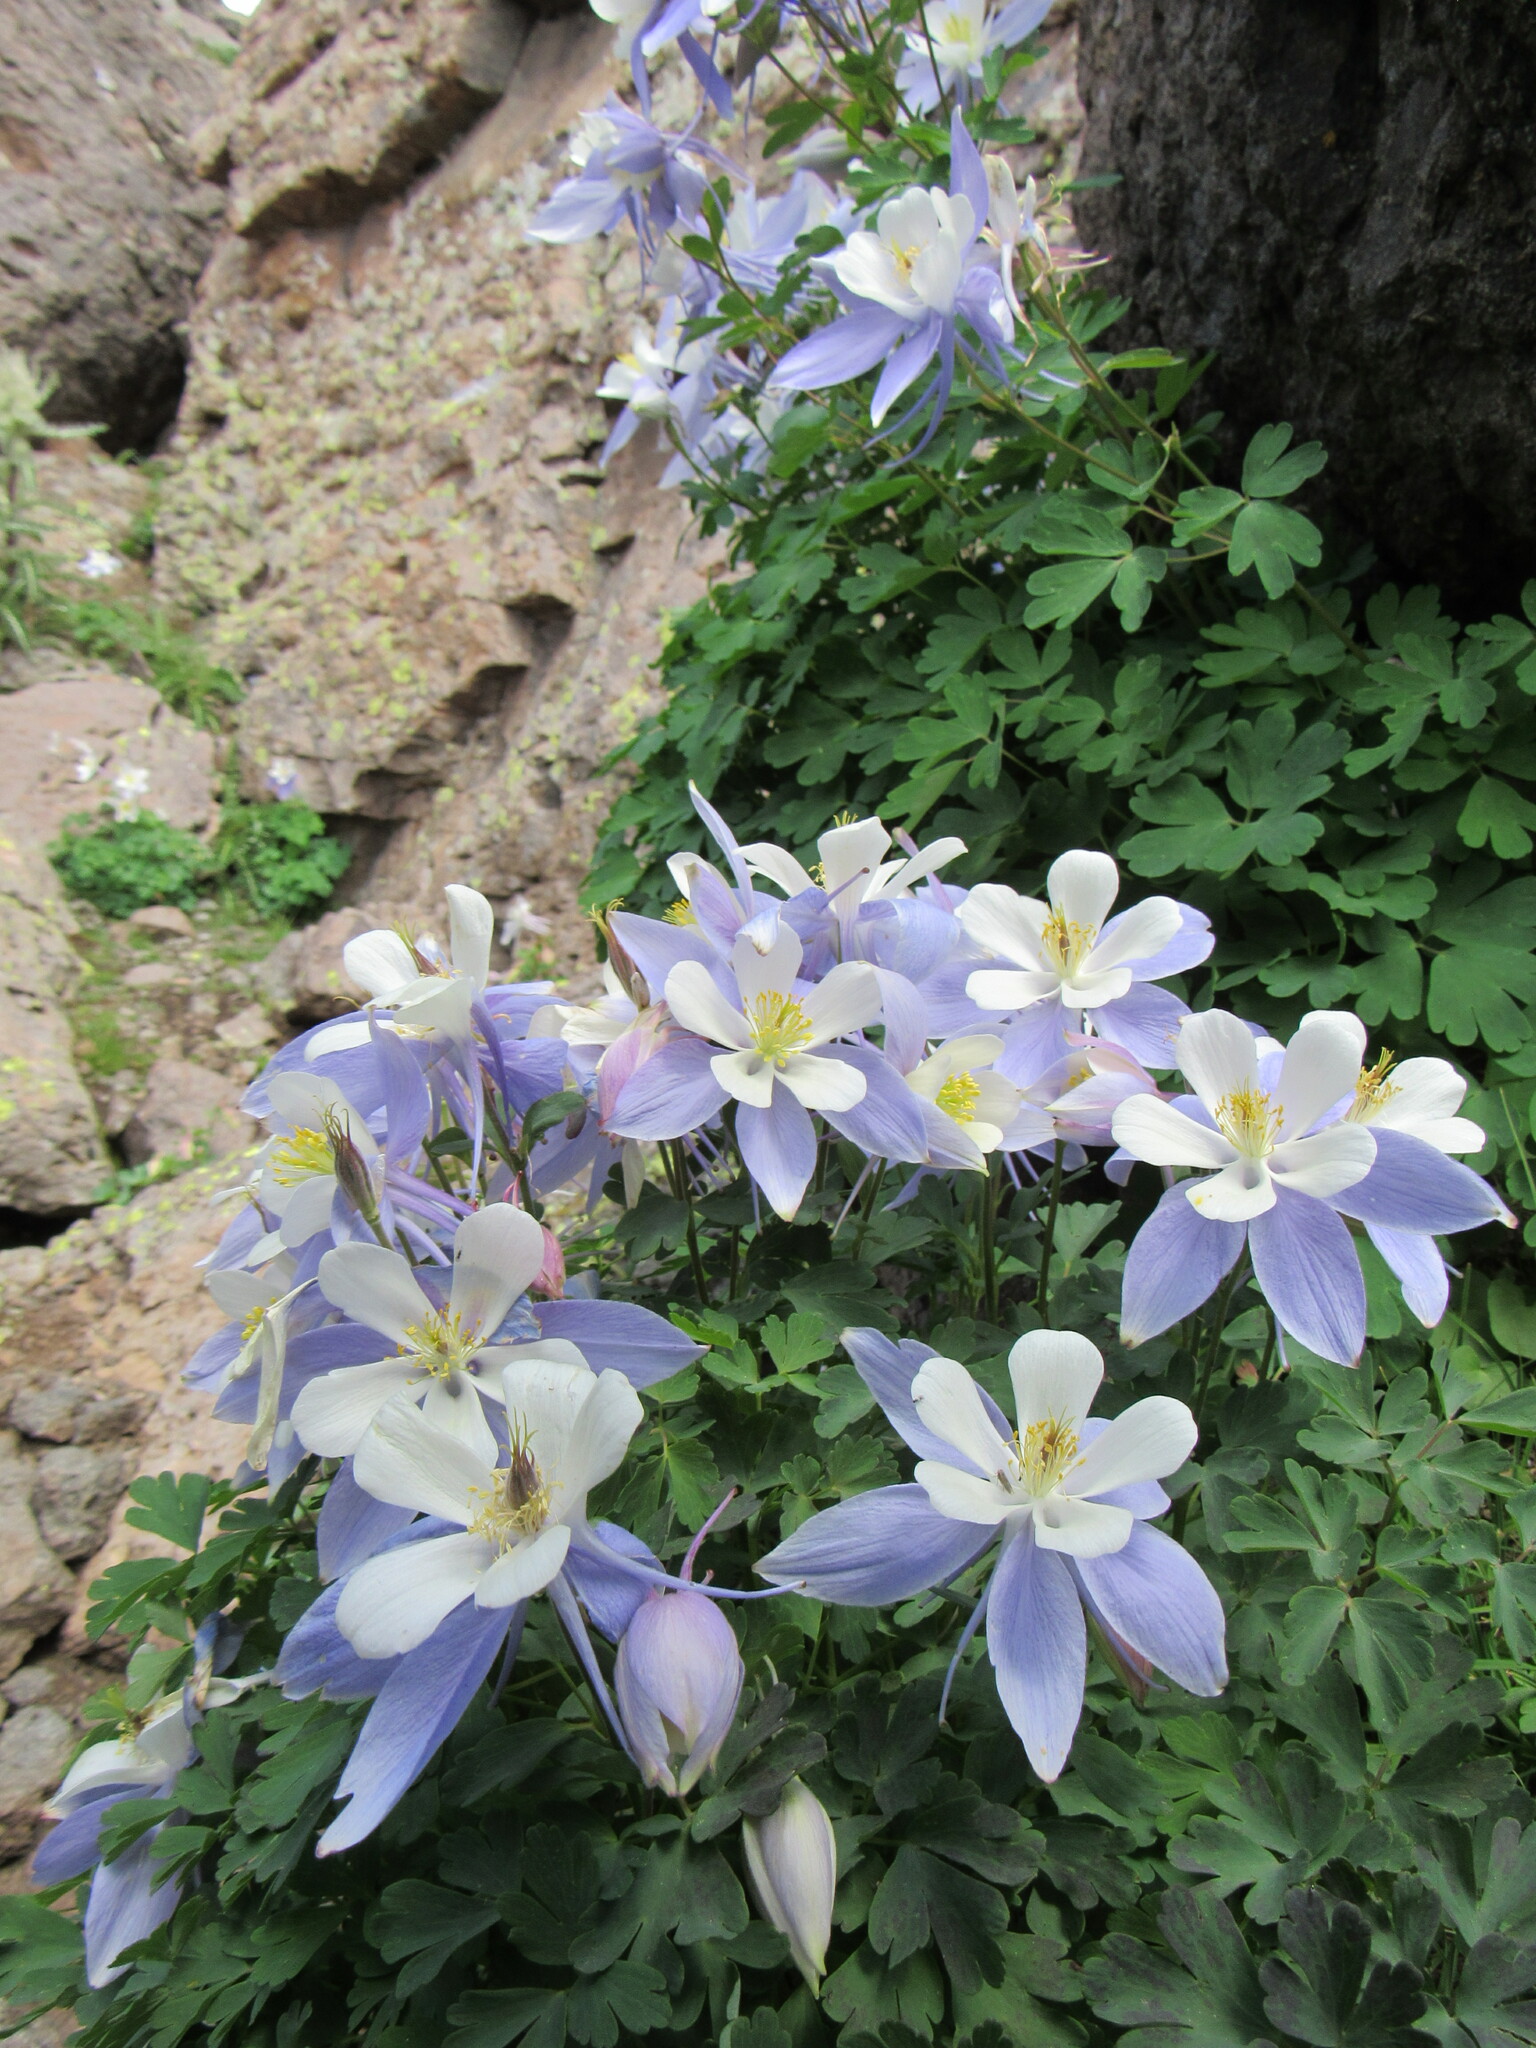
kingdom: Plantae
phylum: Tracheophyta
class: Magnoliopsida
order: Ranunculales
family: Ranunculaceae
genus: Aquilegia
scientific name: Aquilegia coerulea
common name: Rocky mountain columbine
